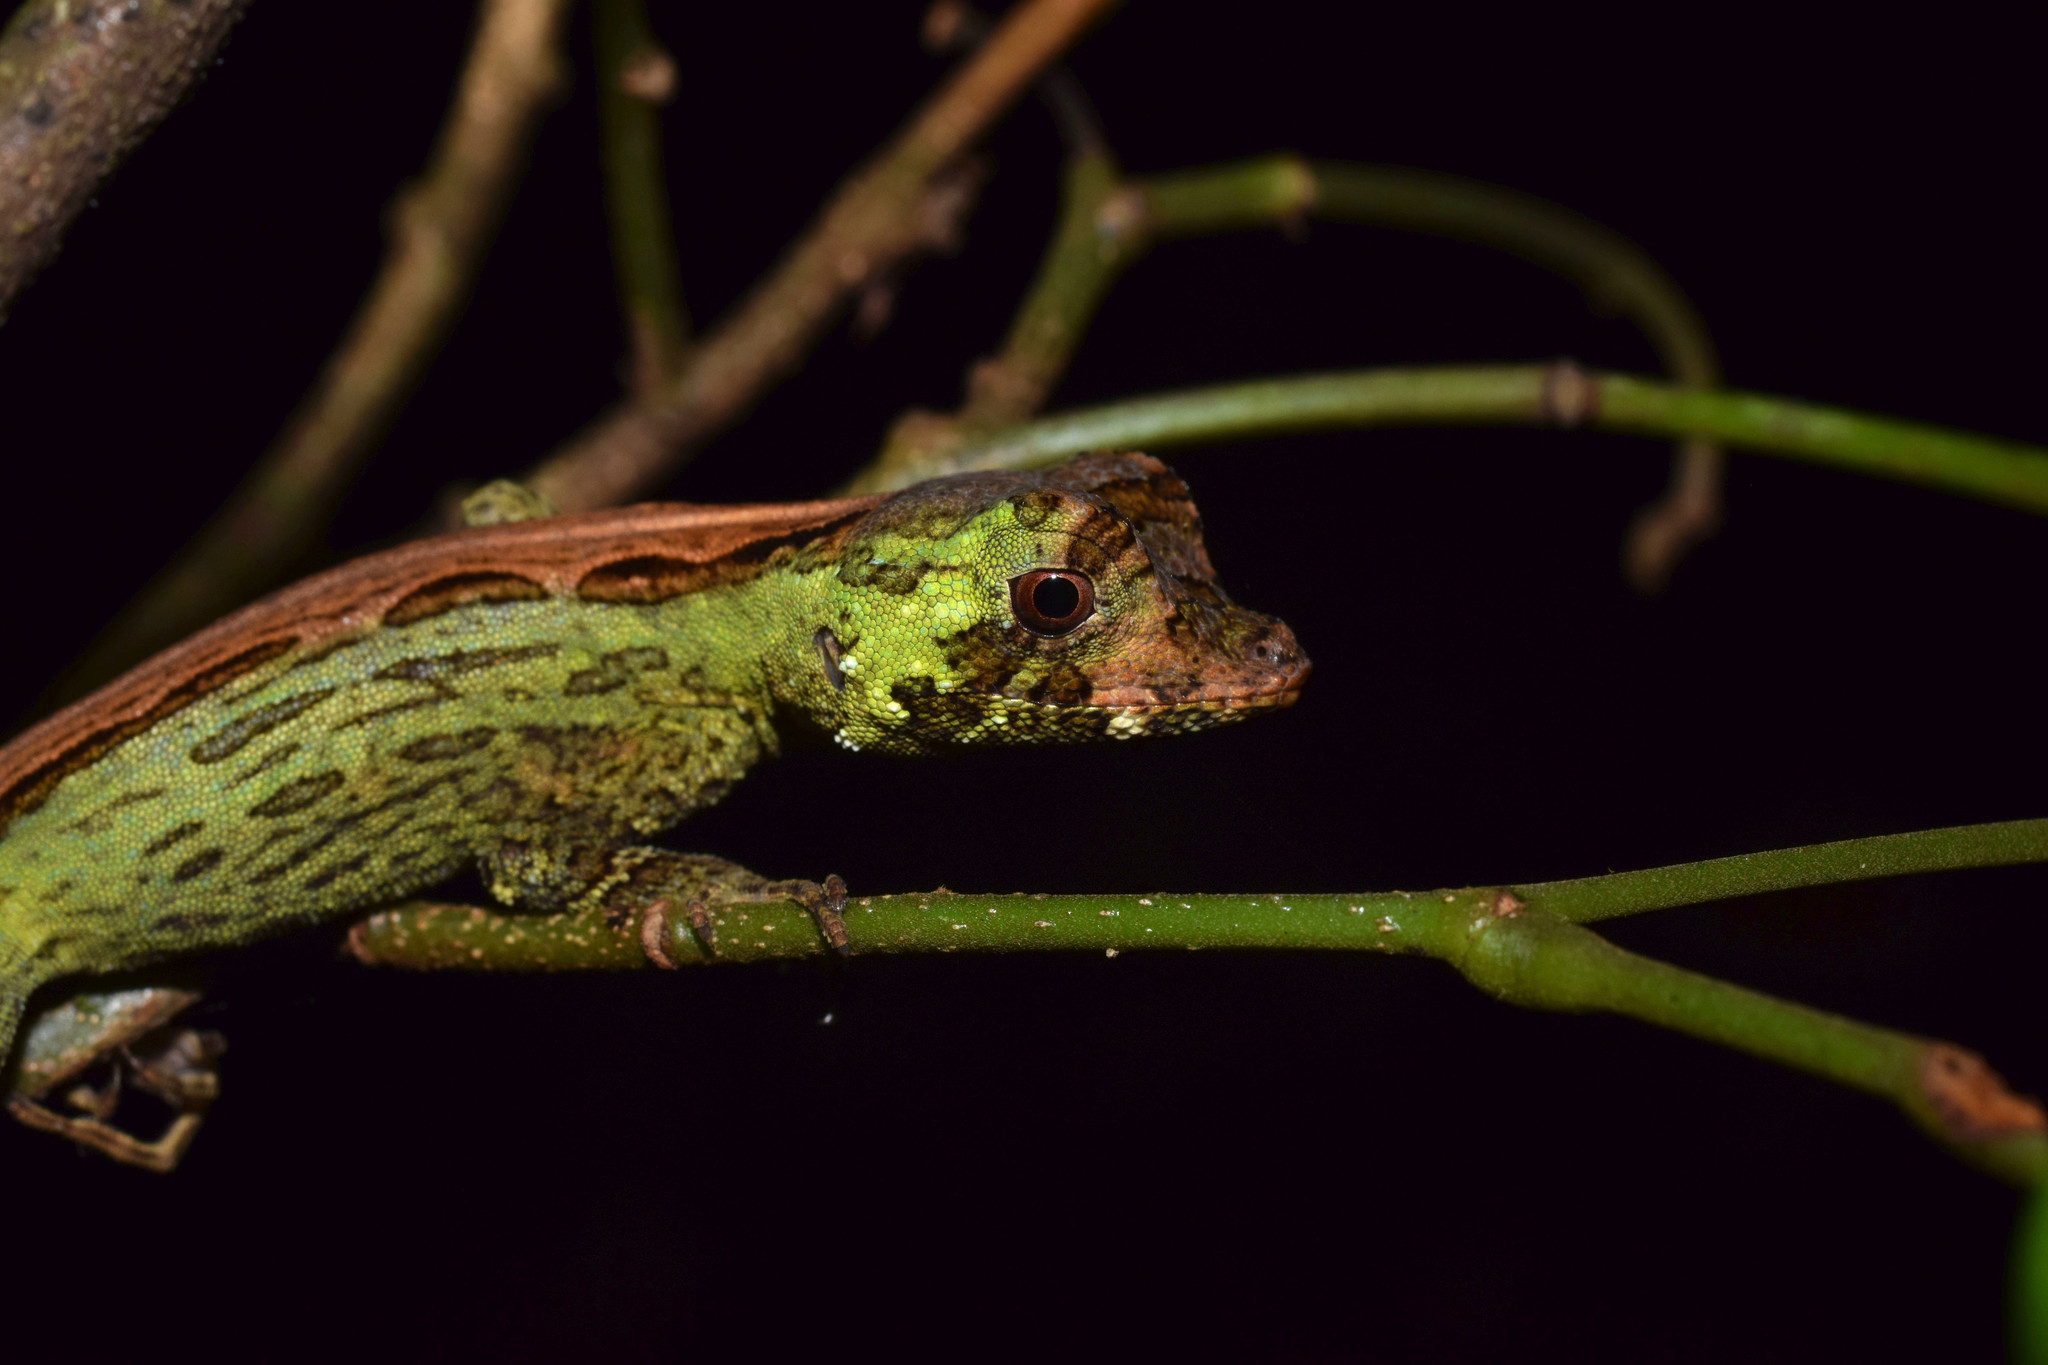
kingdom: Animalia
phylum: Chordata
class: Squamata
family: Dactyloidae
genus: Anolis
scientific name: Anolis capito
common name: Bighead anole
